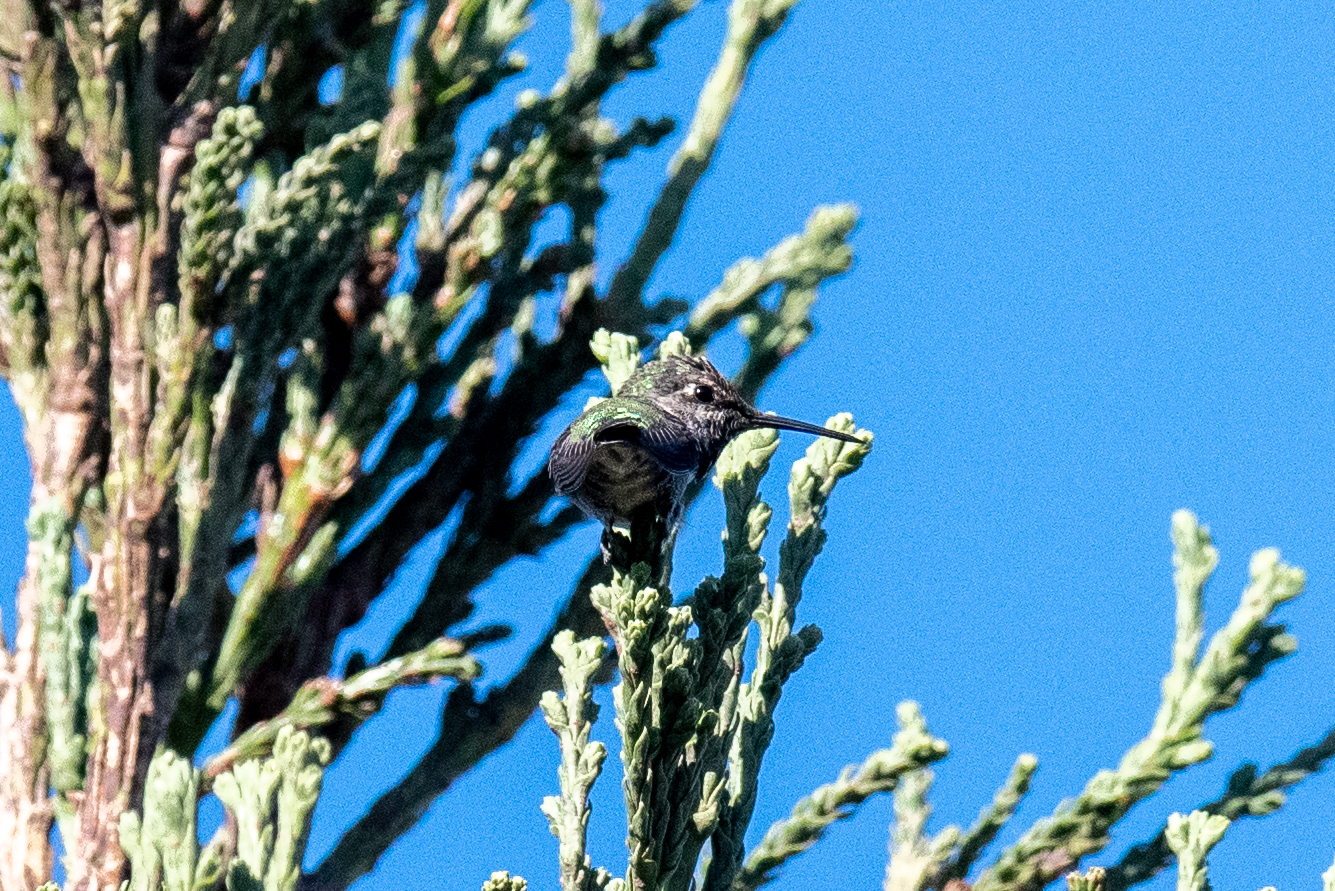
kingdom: Animalia
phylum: Chordata
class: Aves
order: Apodiformes
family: Trochilidae
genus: Calypte
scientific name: Calypte anna
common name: Anna's hummingbird
